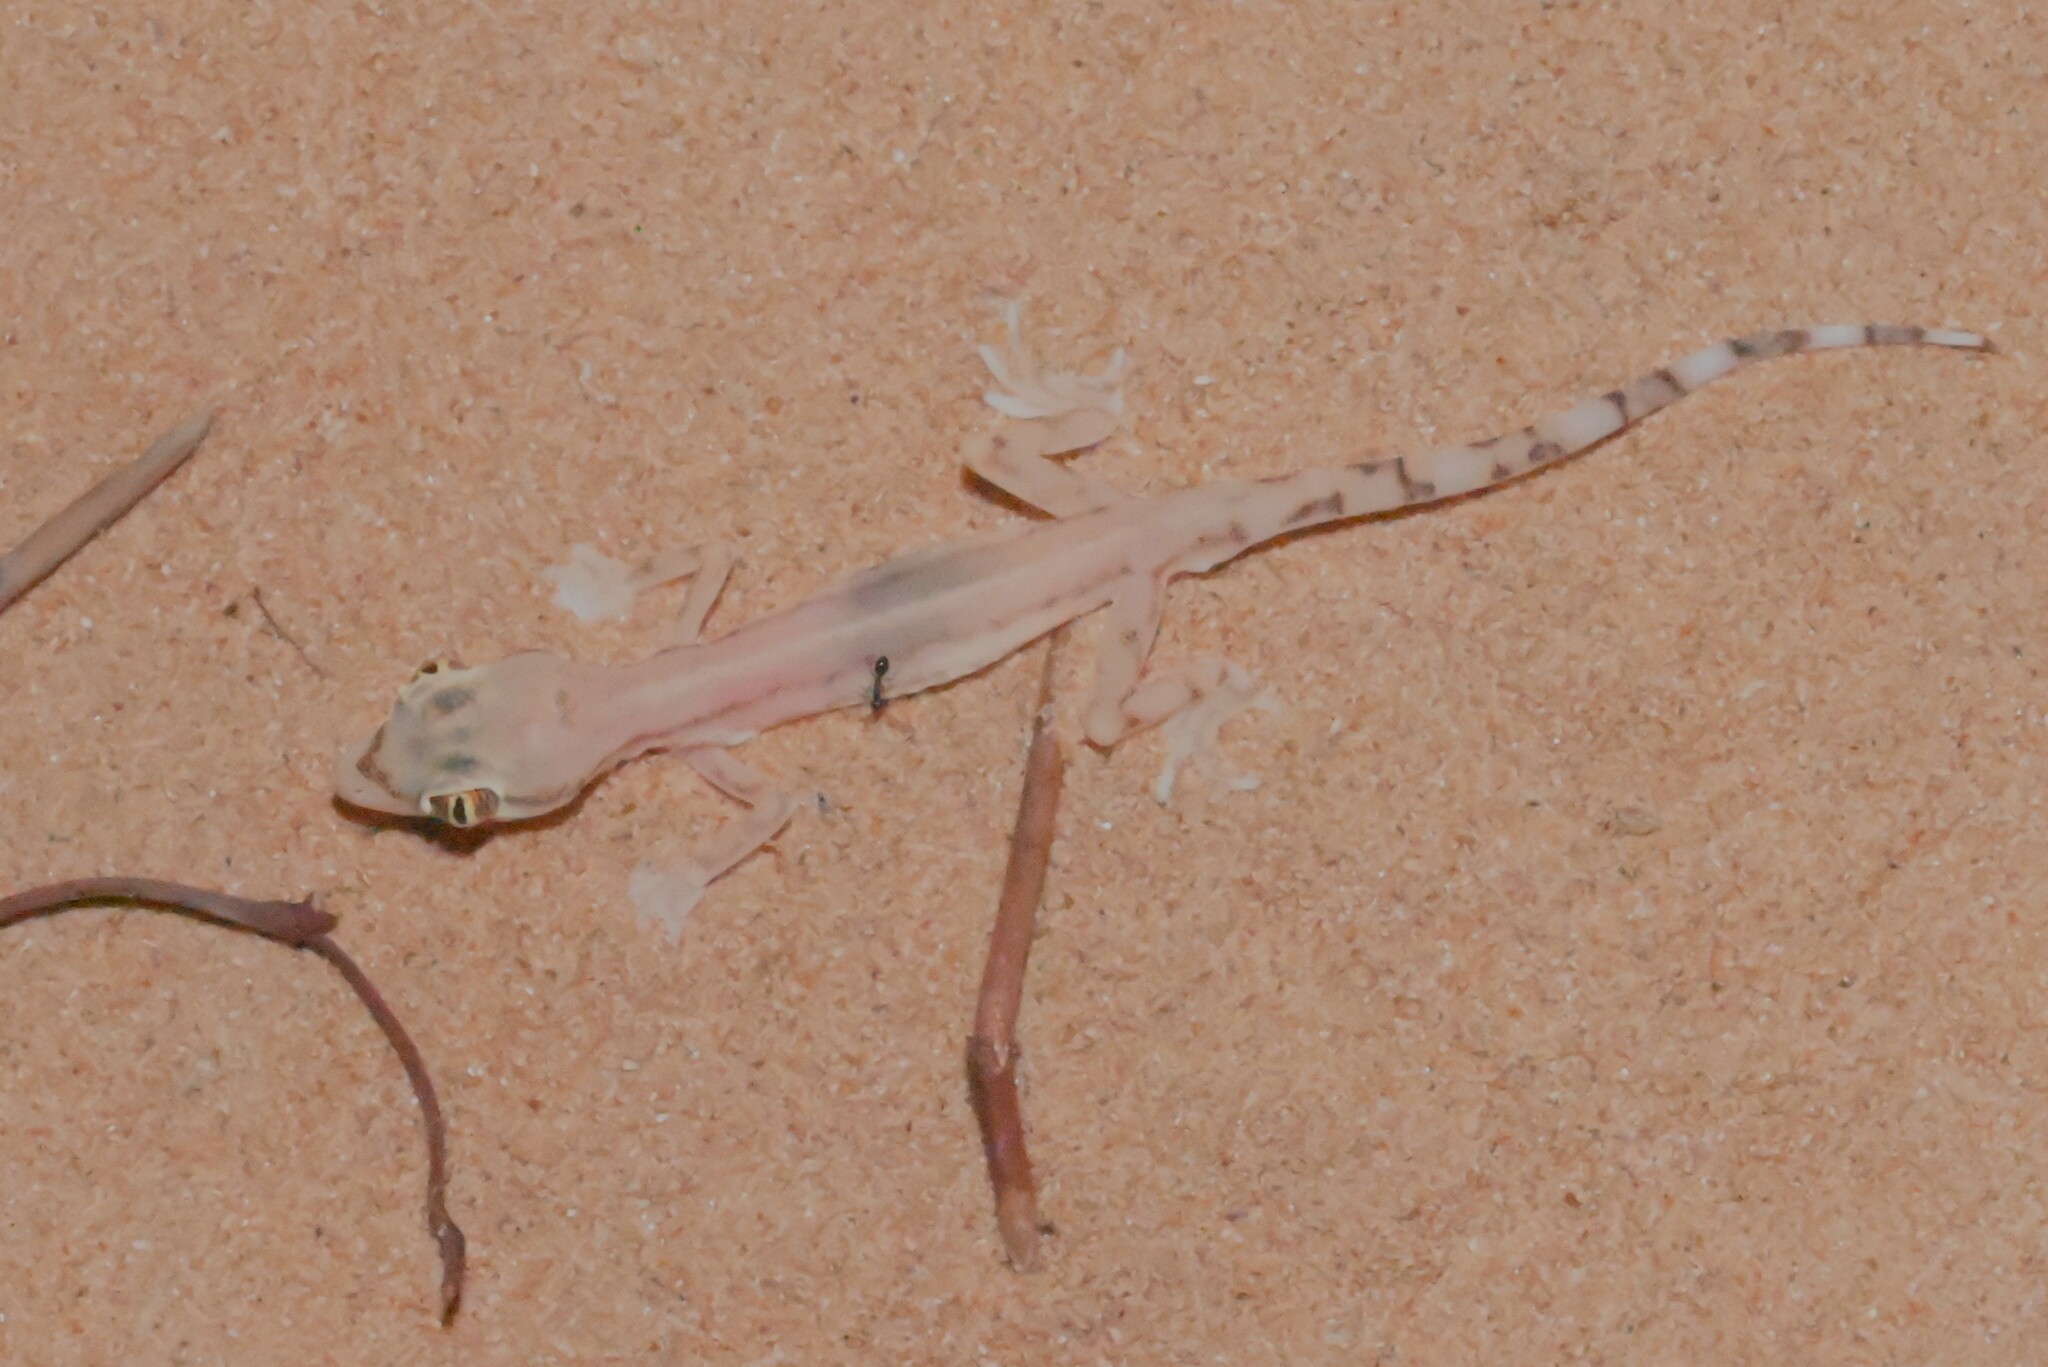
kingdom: Animalia
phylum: Chordata
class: Squamata
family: Gekkonidae
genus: Trigonodactylus
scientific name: Trigonodactylus arabicus
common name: Arabian sand gecko
